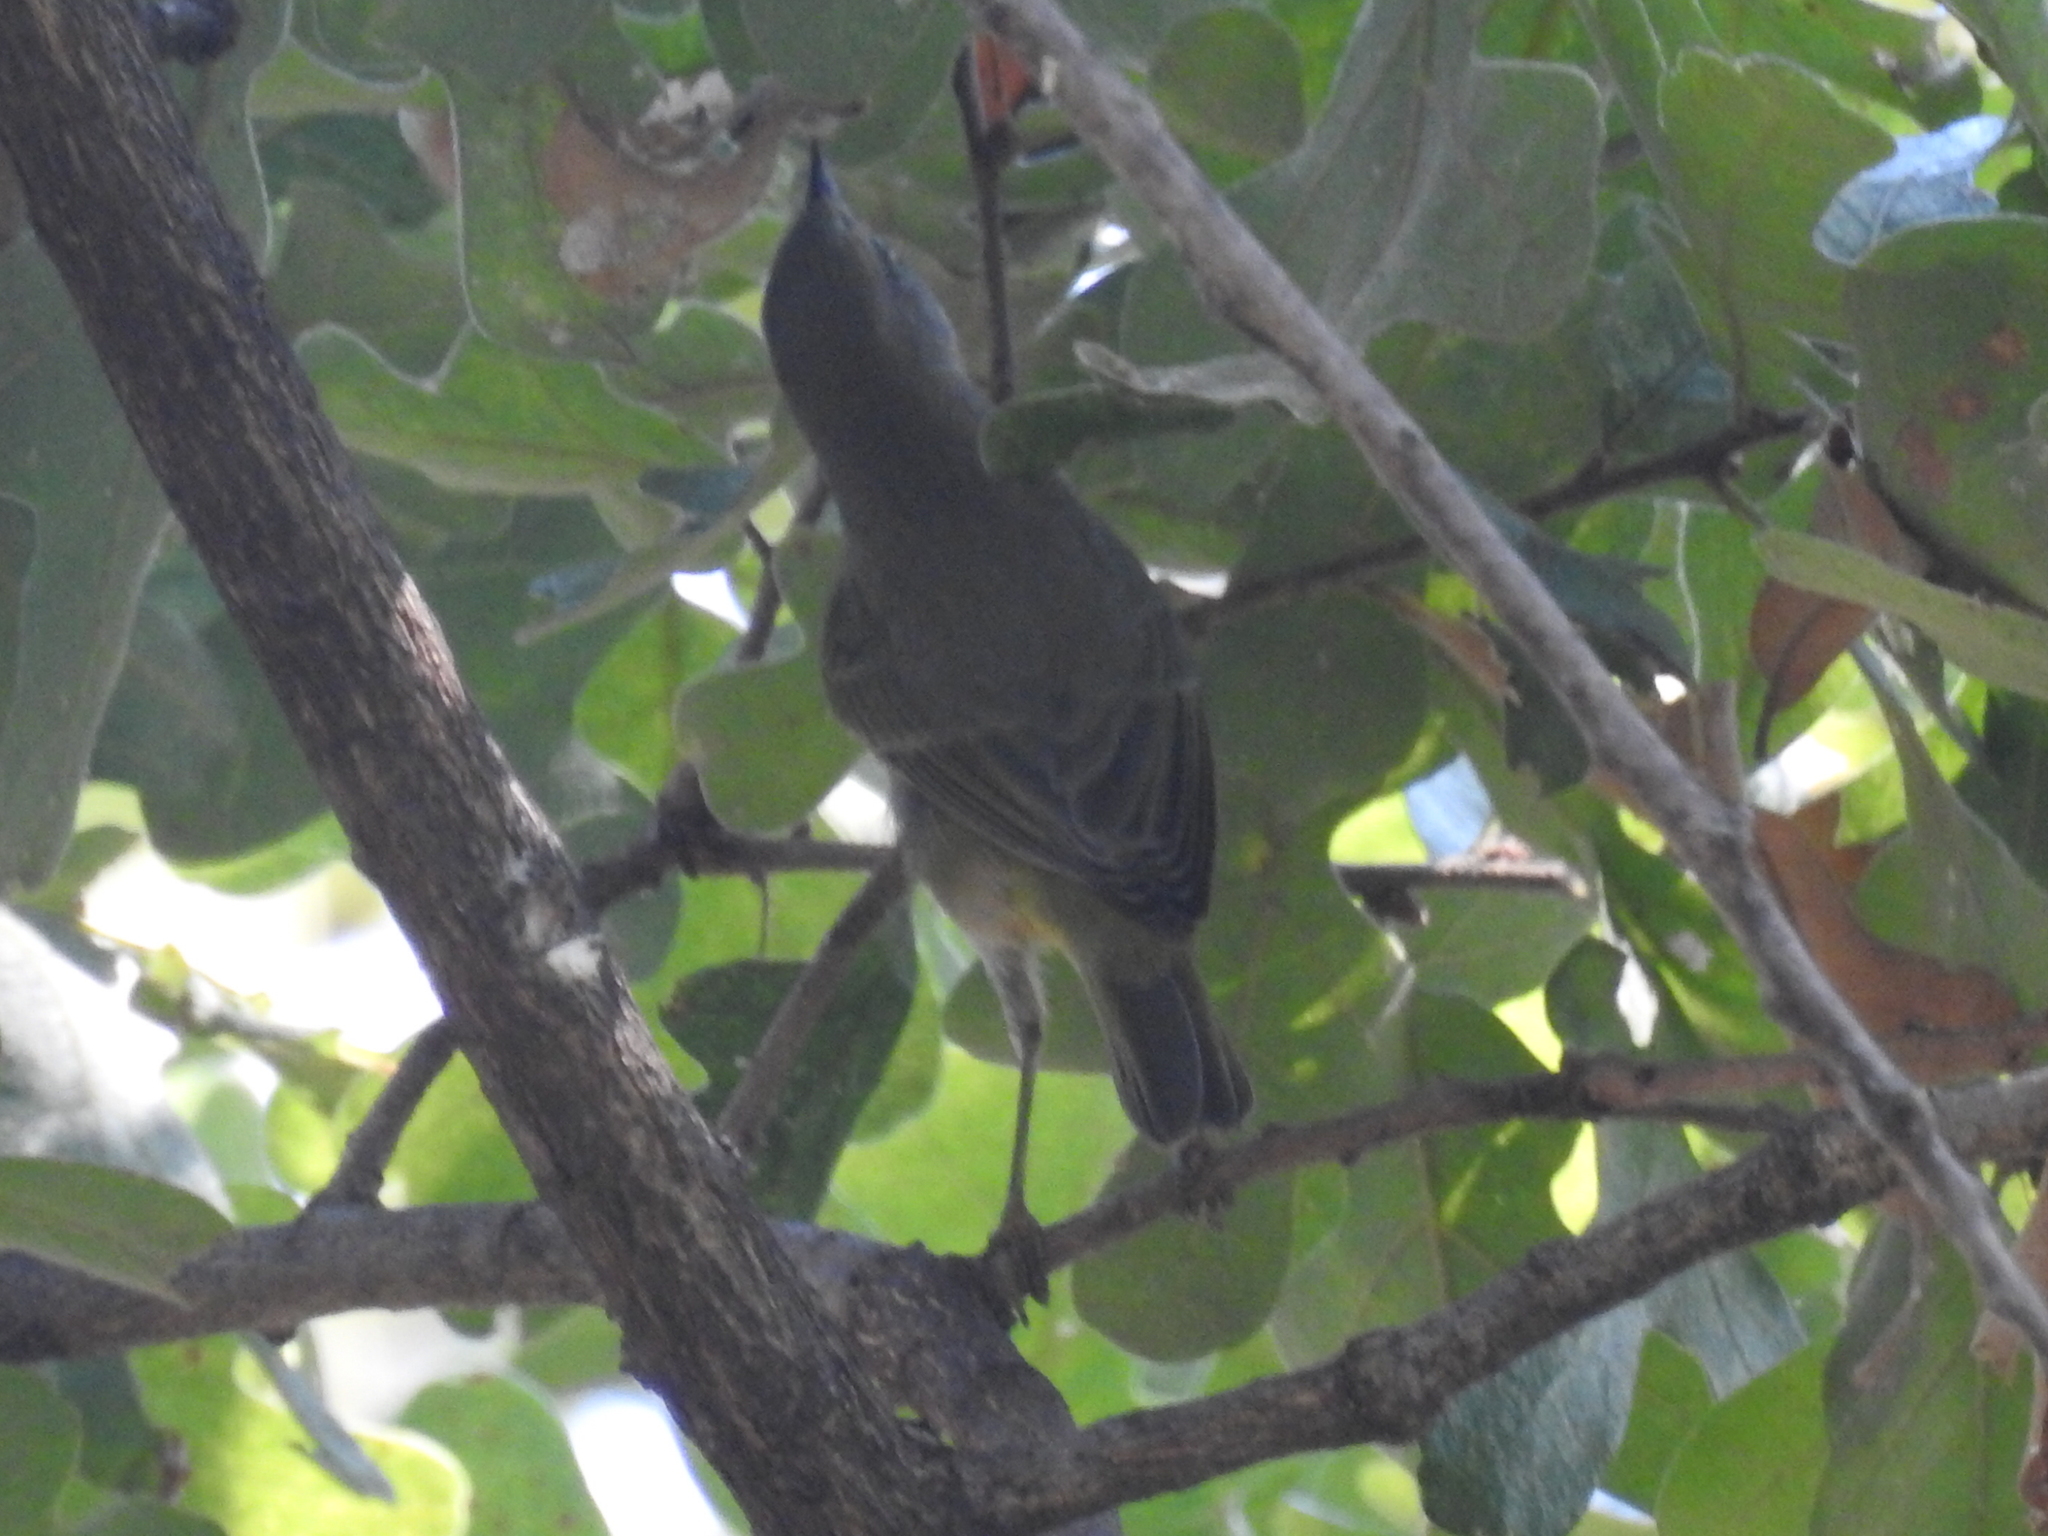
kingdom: Animalia
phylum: Chordata
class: Aves
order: Passeriformes
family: Parulidae
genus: Leiothlypis
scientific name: Leiothlypis celata
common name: Orange-crowned warbler
